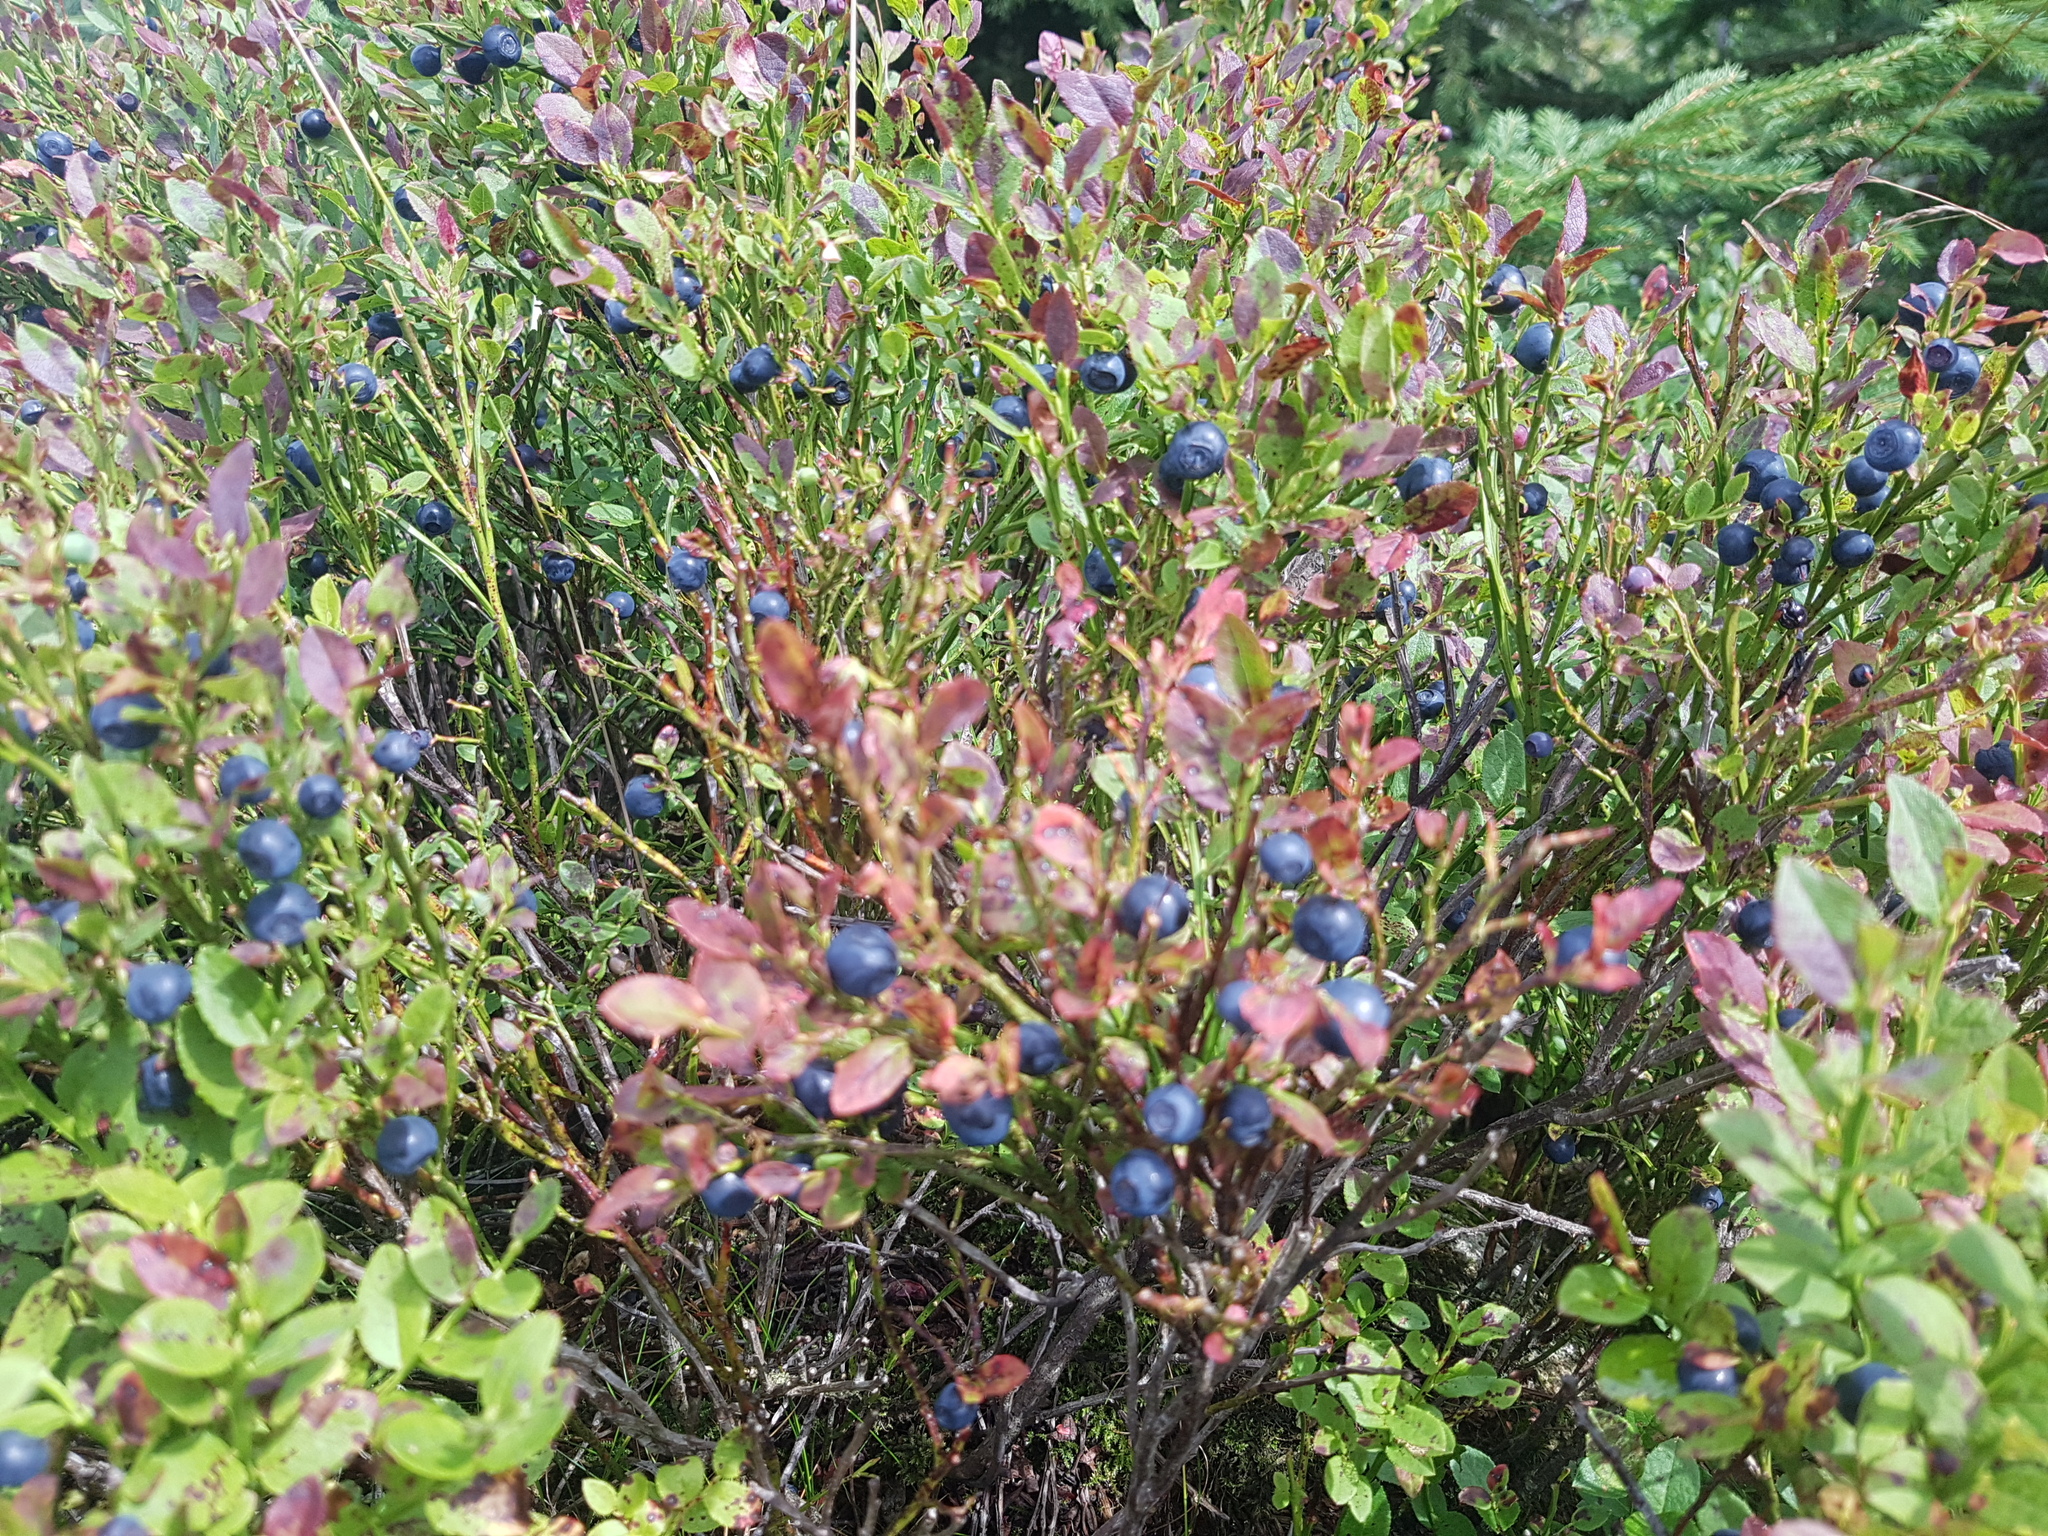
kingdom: Plantae
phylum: Tracheophyta
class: Magnoliopsida
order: Ericales
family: Ericaceae
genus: Vaccinium
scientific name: Vaccinium myrtillus
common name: Bilberry
